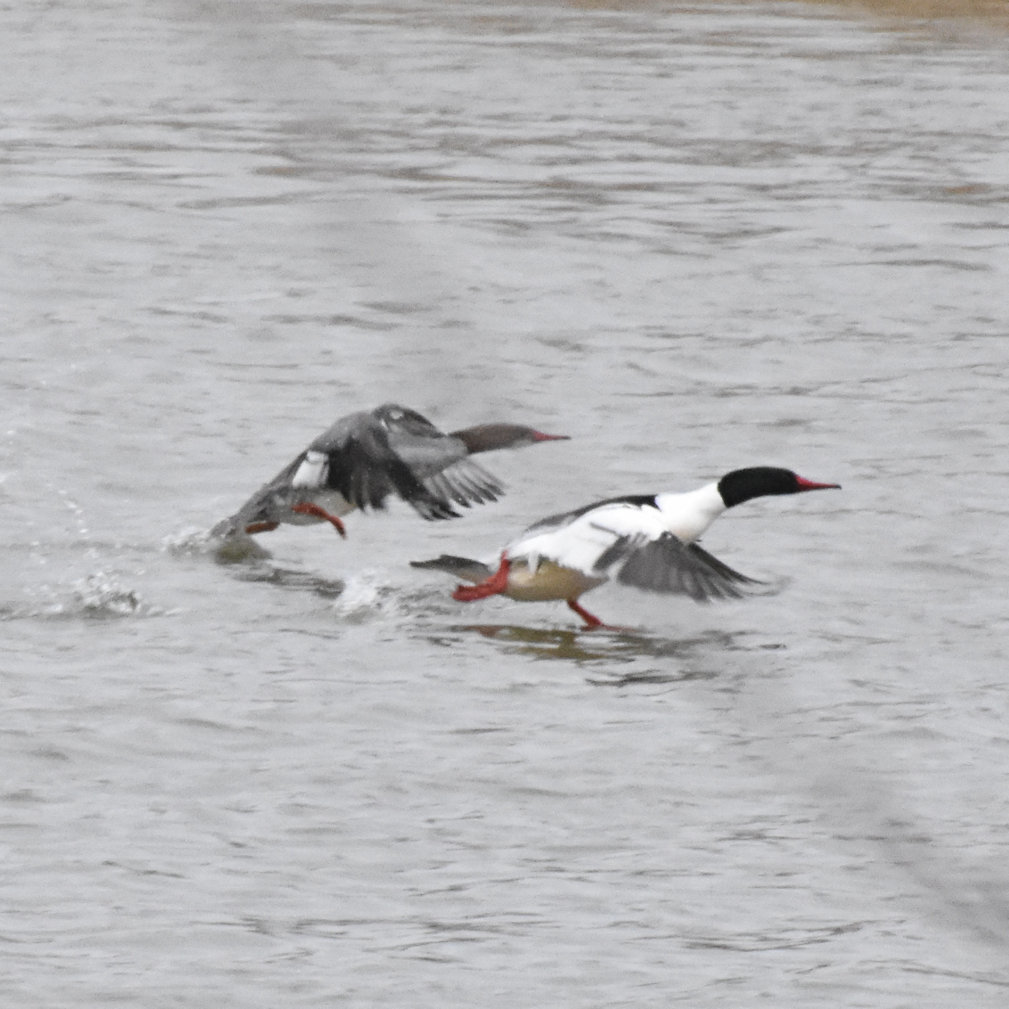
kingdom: Animalia
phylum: Chordata
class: Aves
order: Anseriformes
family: Anatidae
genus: Mergus
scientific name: Mergus merganser
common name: Common merganser
